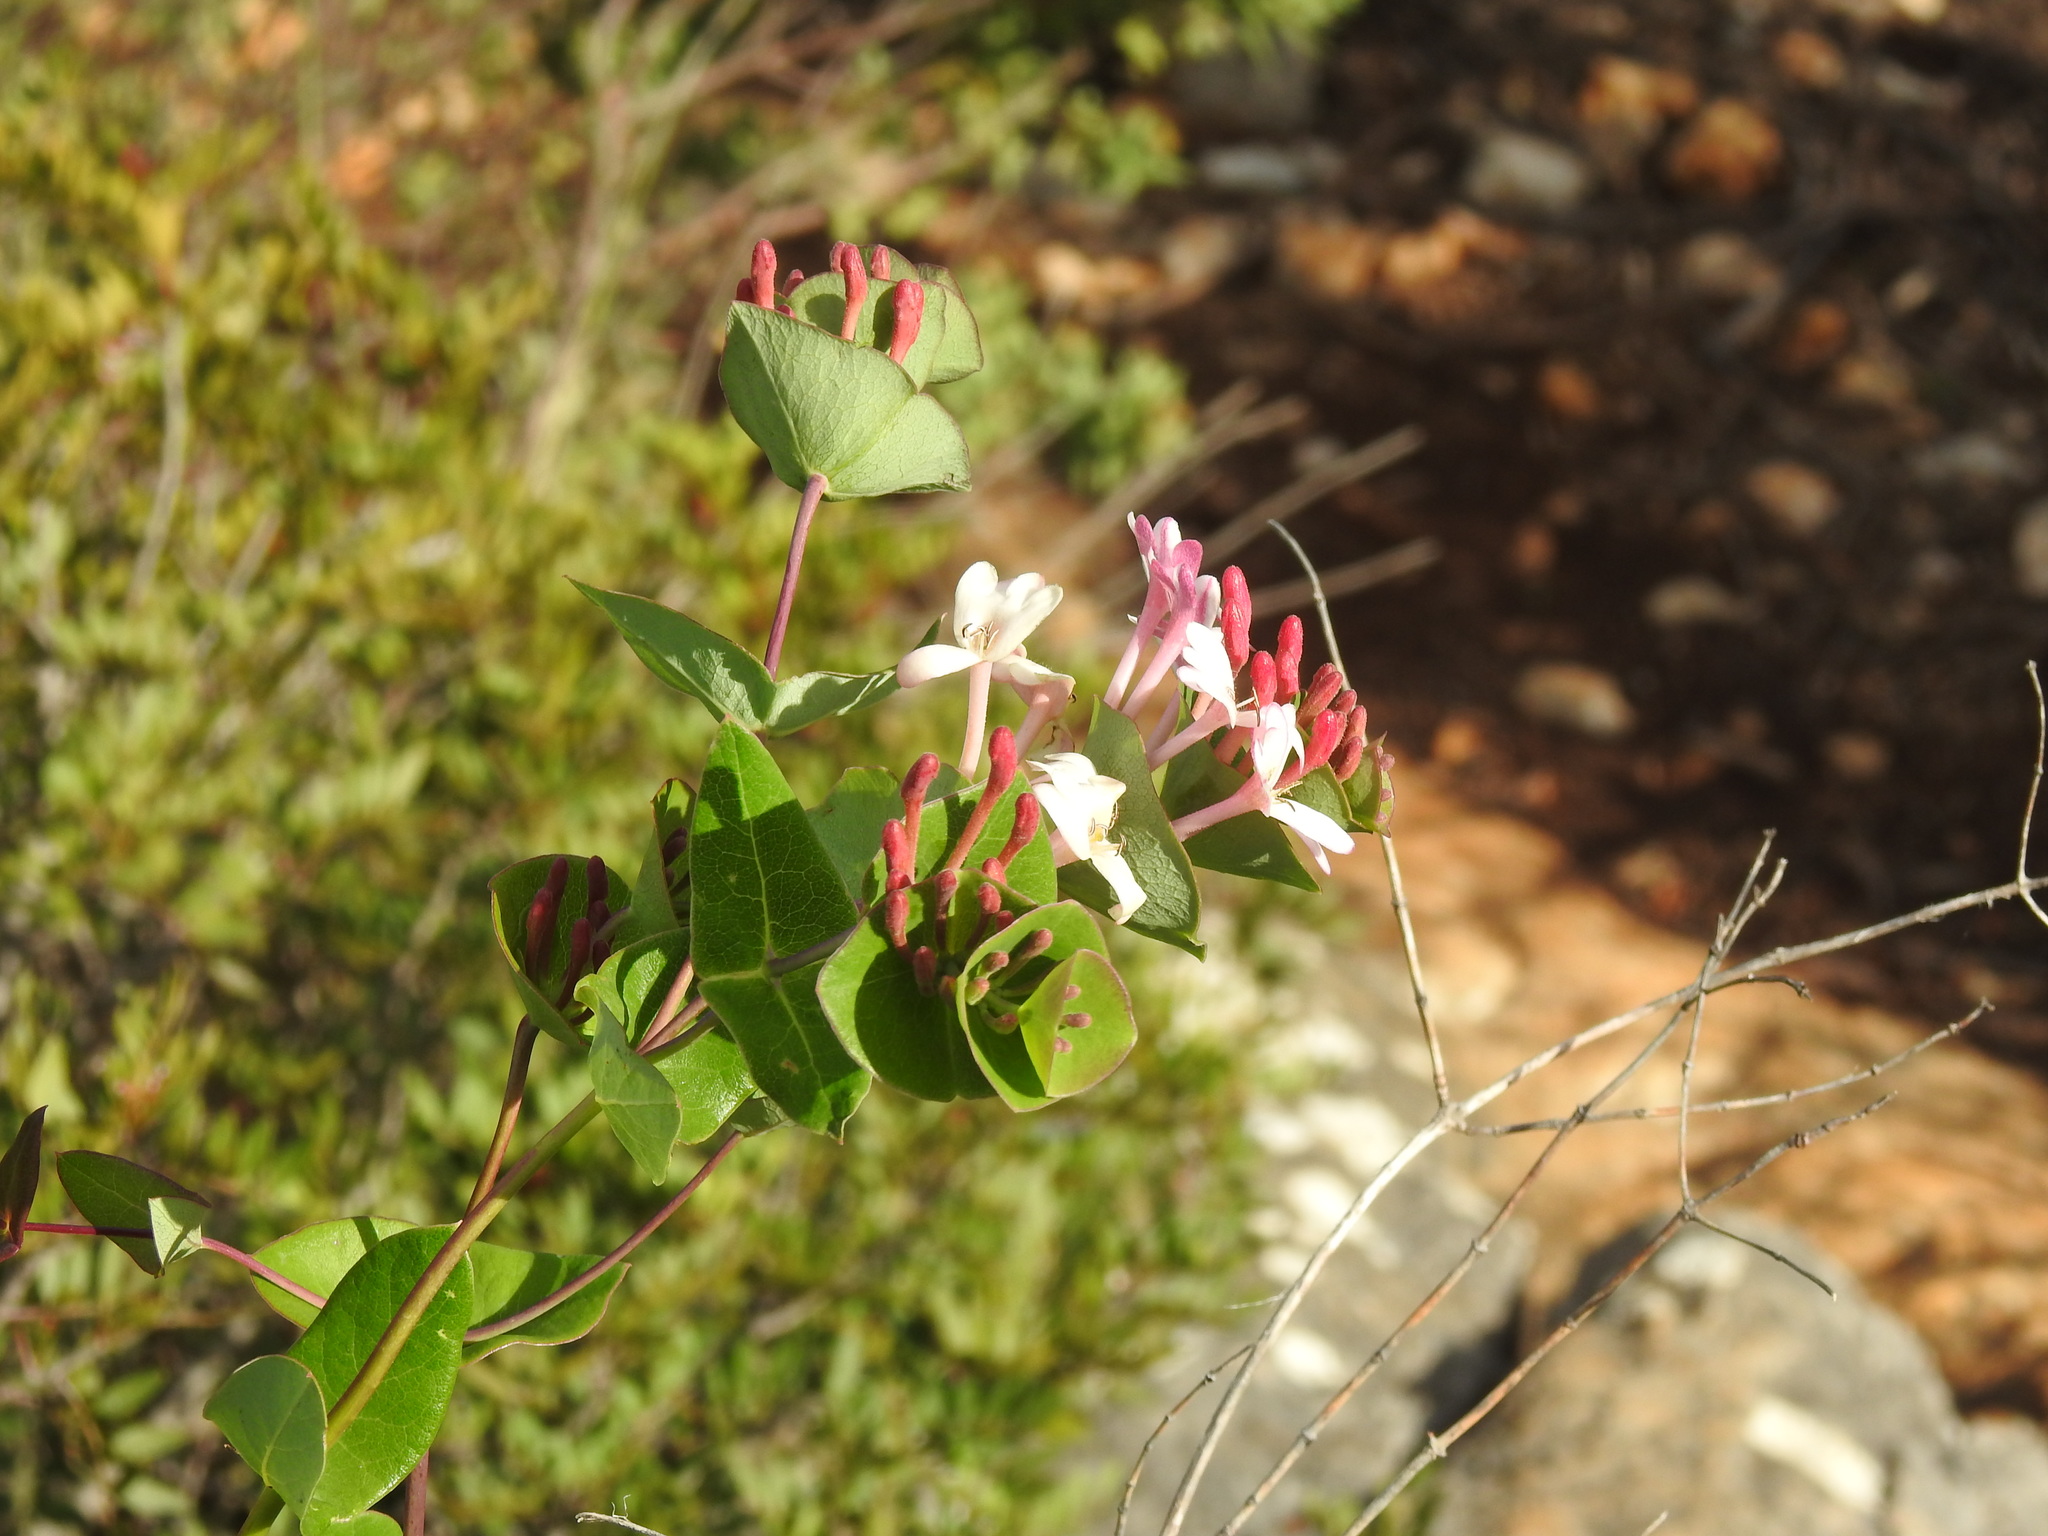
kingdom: Plantae
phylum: Tracheophyta
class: Magnoliopsida
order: Dipsacales
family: Caprifoliaceae
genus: Lonicera
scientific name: Lonicera implexa
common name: Minorca honeysuckle
